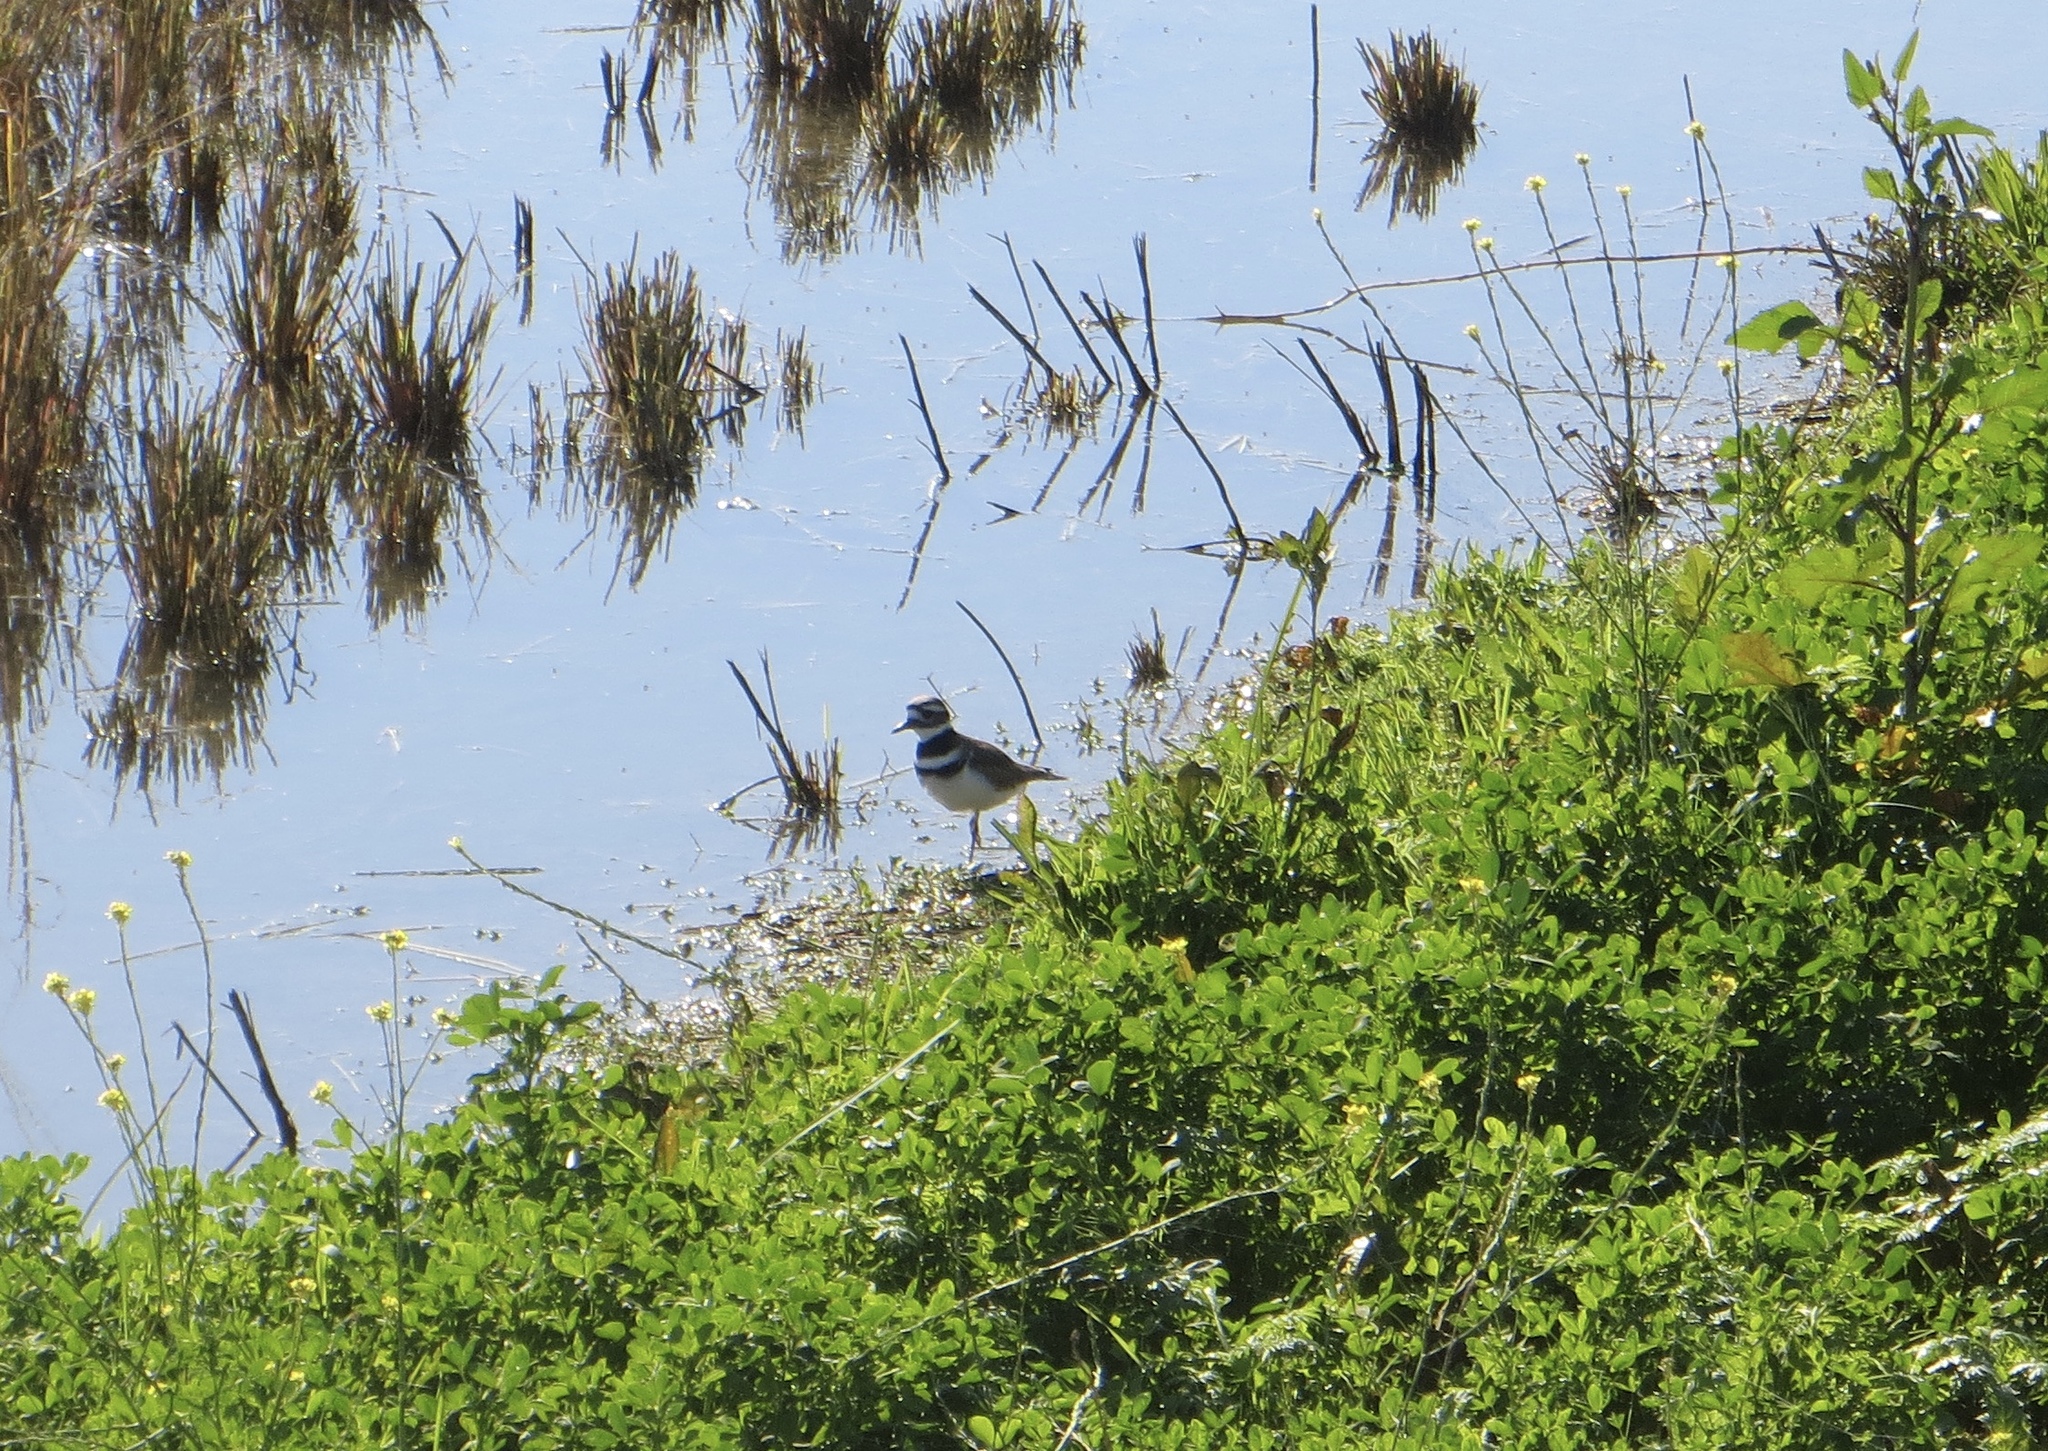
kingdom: Animalia
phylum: Chordata
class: Aves
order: Charadriiformes
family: Charadriidae
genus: Charadrius
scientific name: Charadrius vociferus
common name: Killdeer
